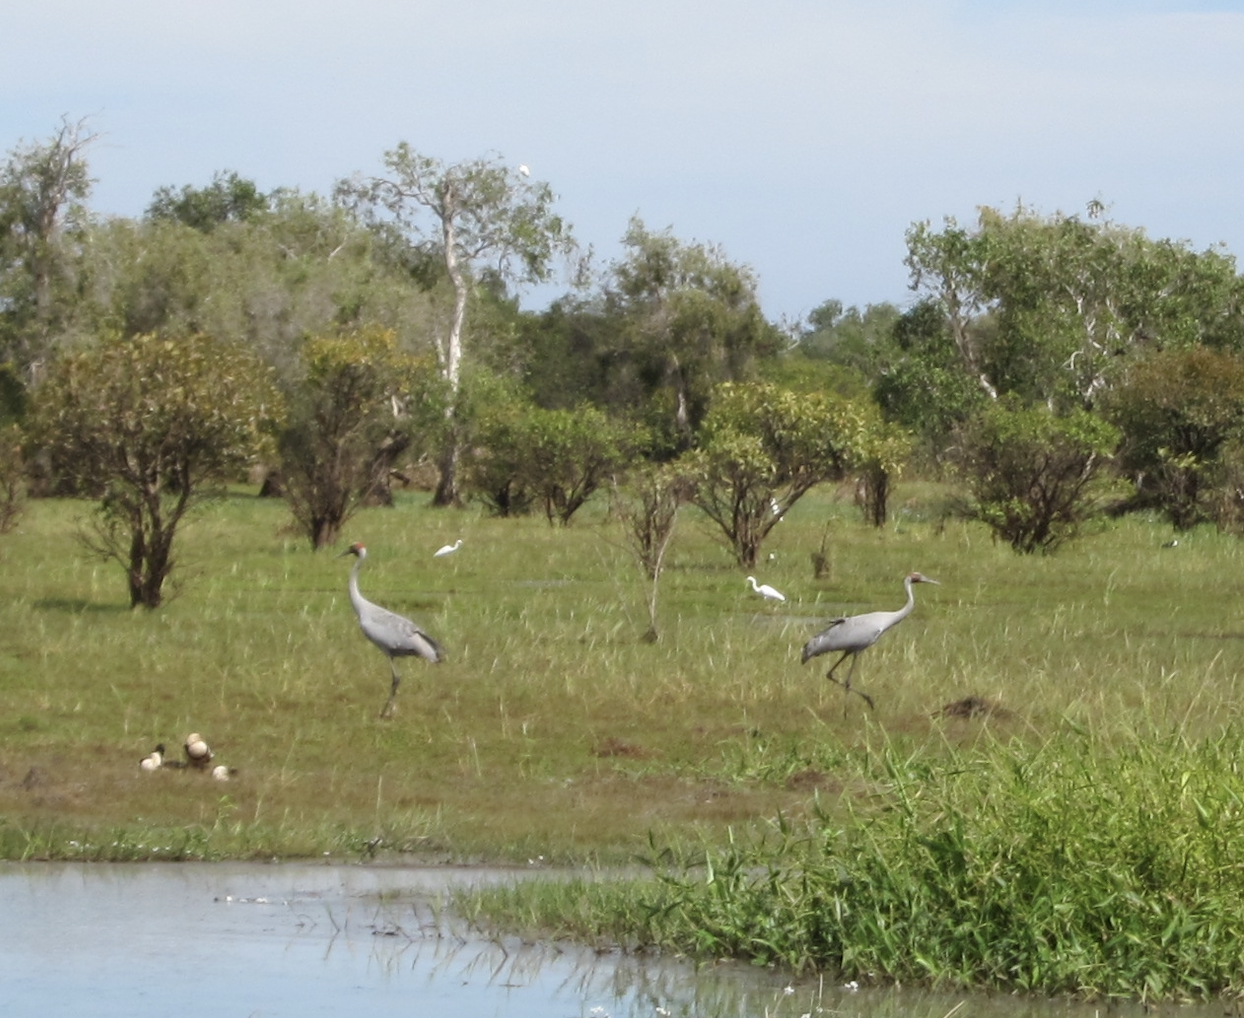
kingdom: Animalia
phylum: Chordata
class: Aves
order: Gruiformes
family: Gruidae
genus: Grus
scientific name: Grus rubicunda
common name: Brolga
